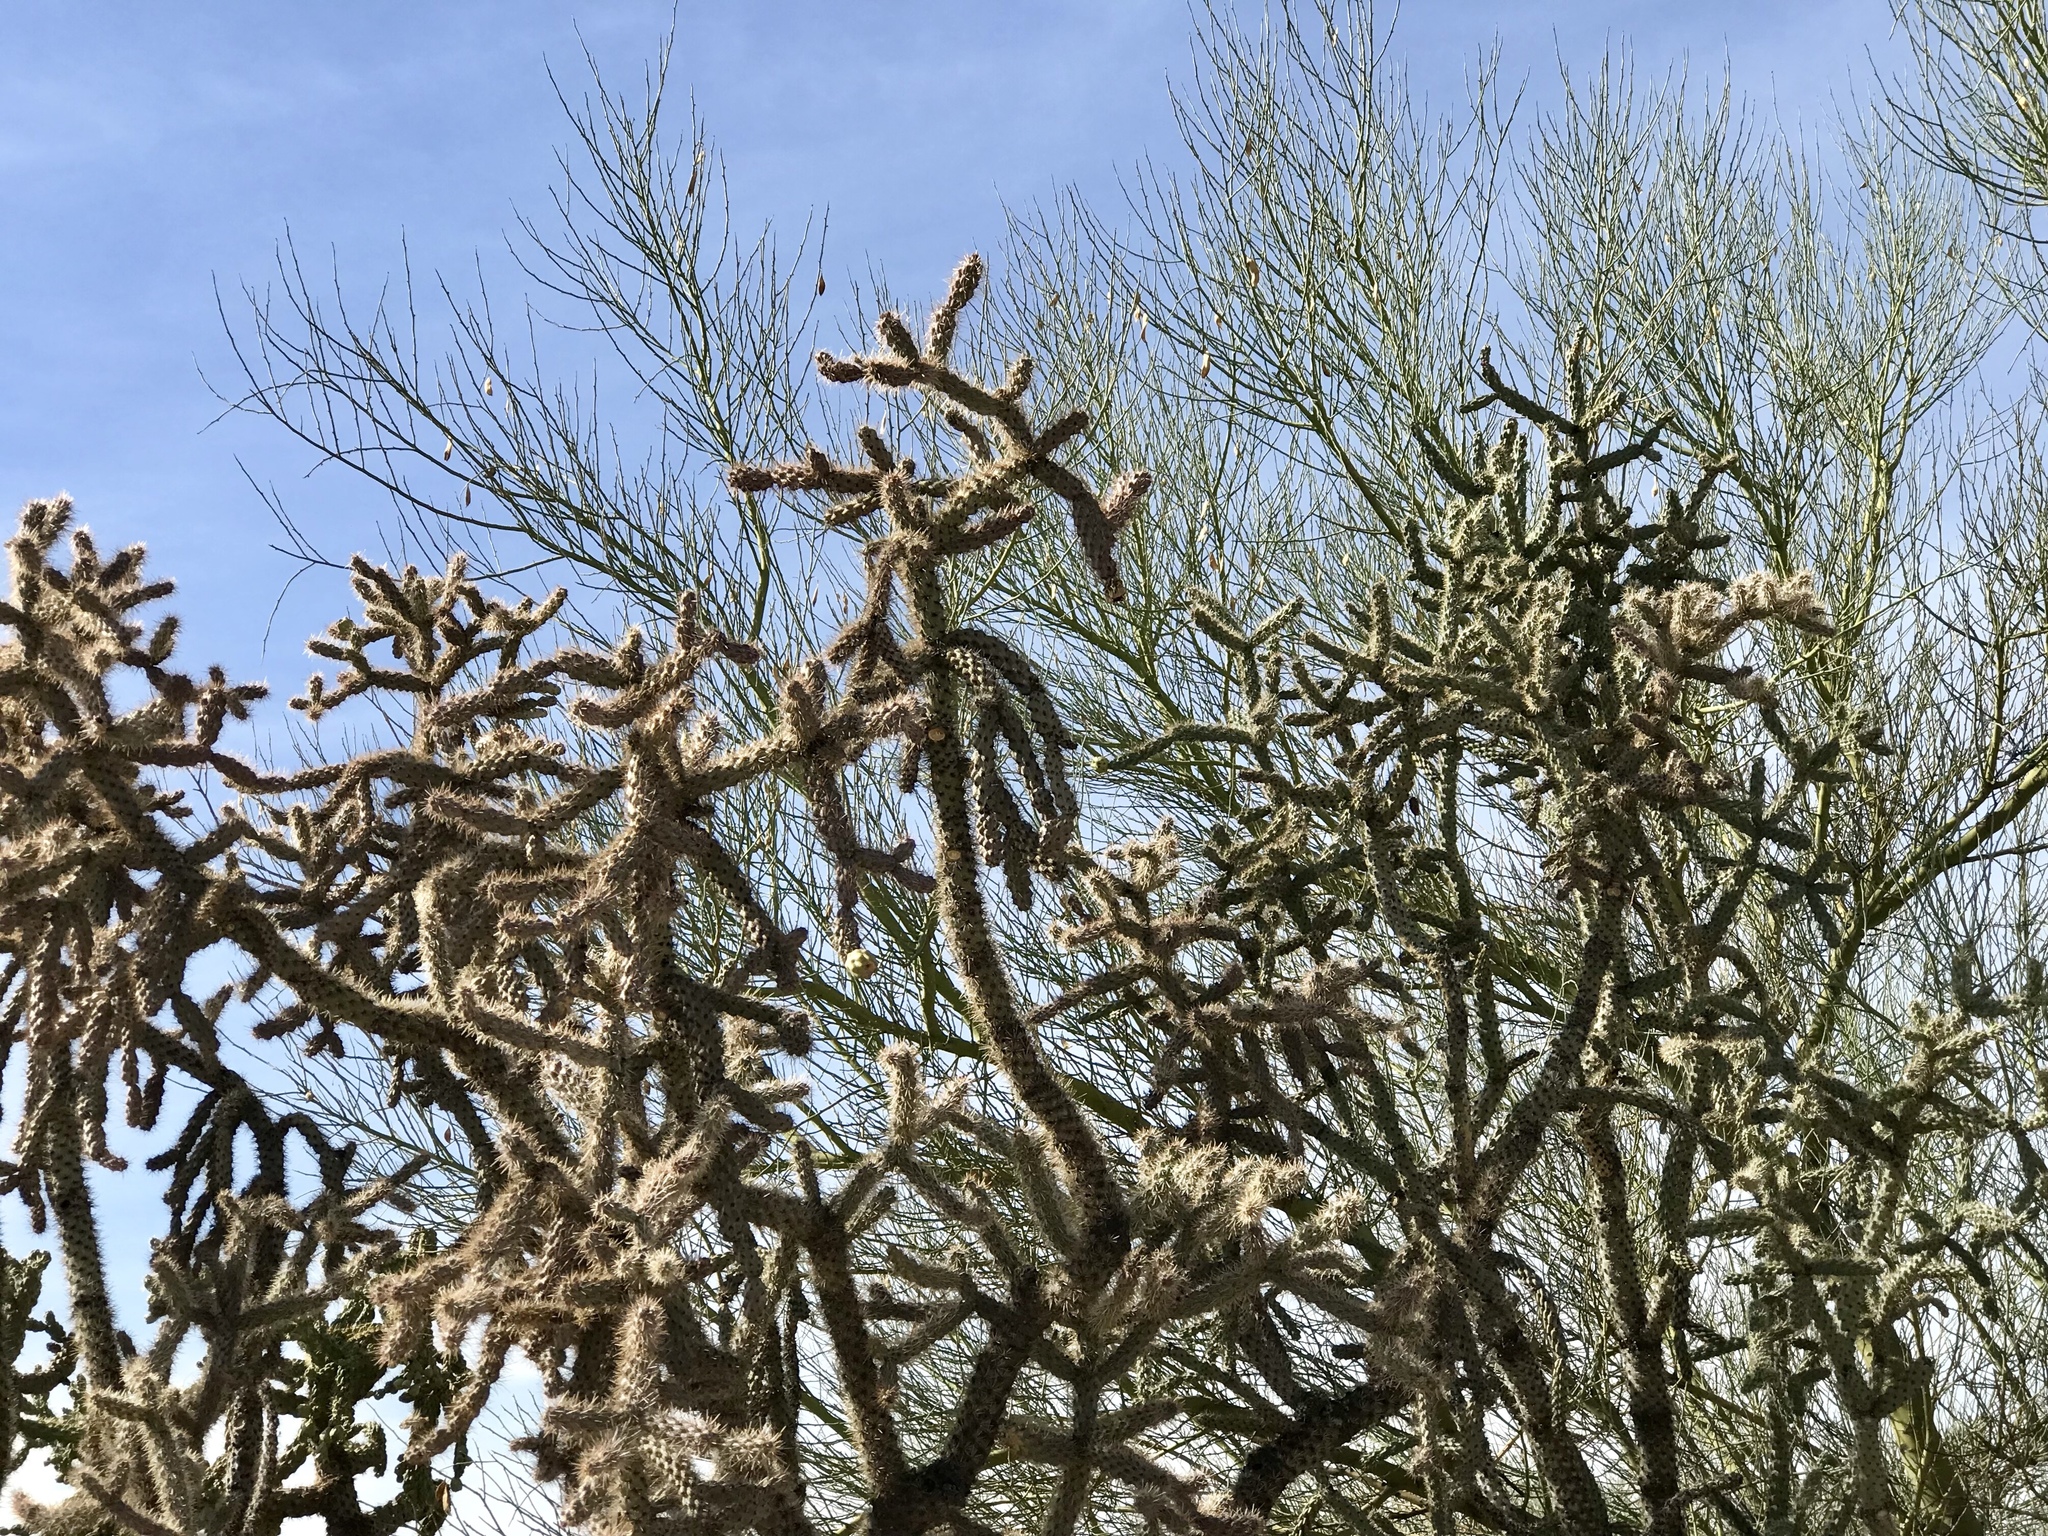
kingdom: Plantae
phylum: Tracheophyta
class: Magnoliopsida
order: Caryophyllales
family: Cactaceae
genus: Cylindropuntia
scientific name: Cylindropuntia imbricata
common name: Candelabrum cactus
